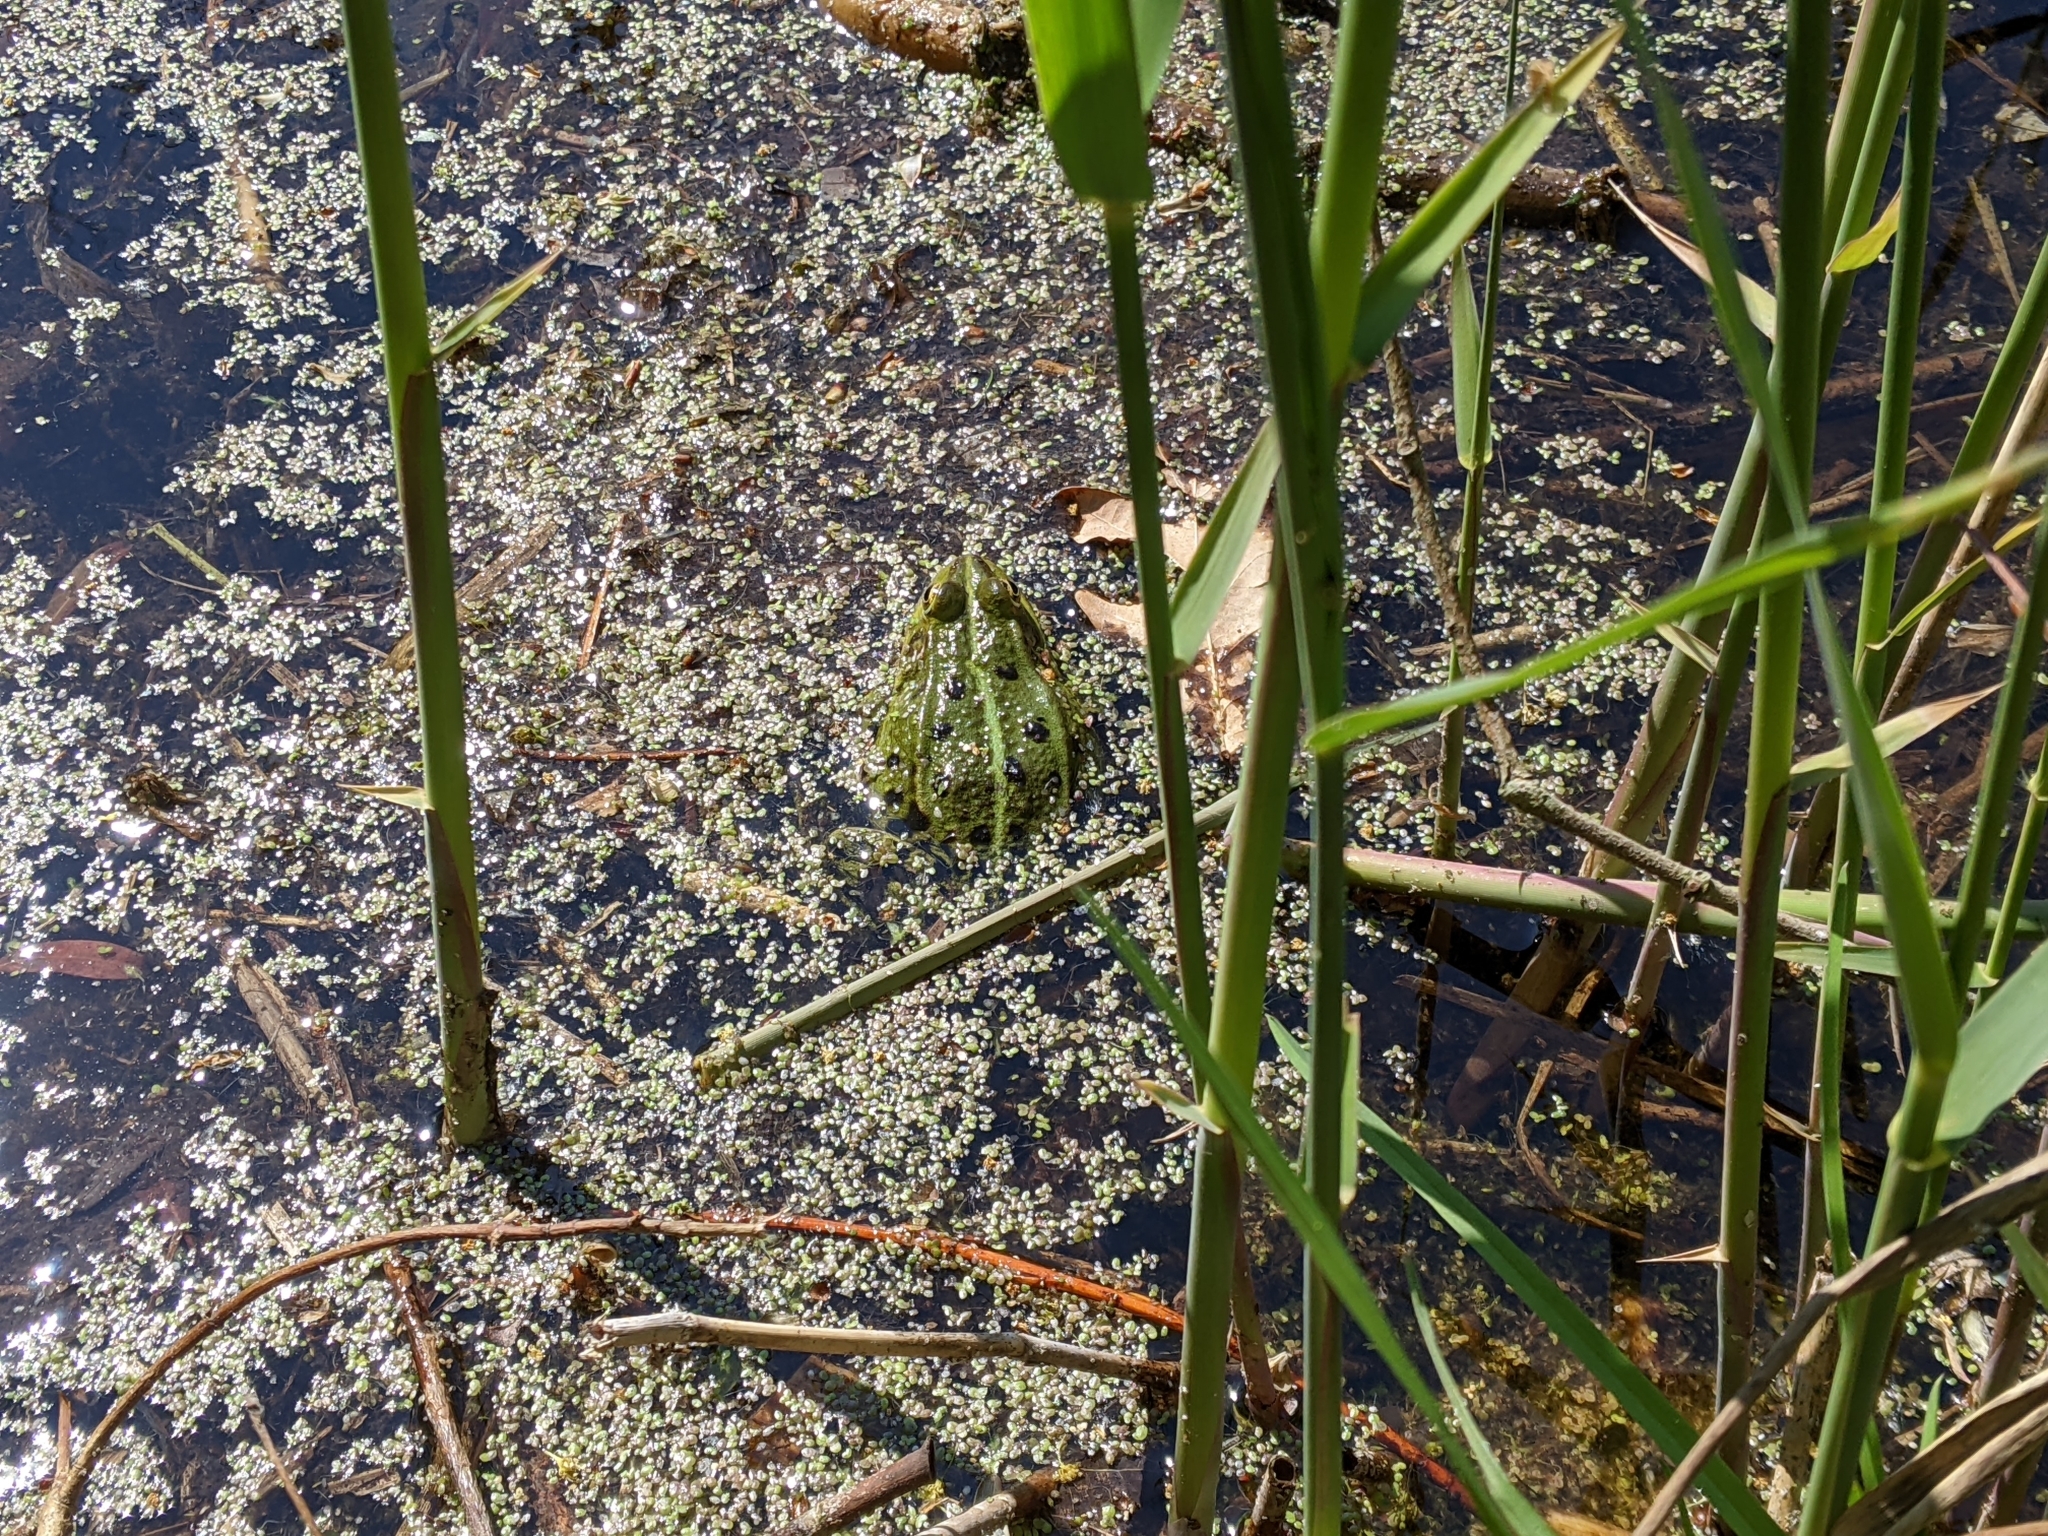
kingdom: Animalia
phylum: Chordata
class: Amphibia
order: Anura
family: Ranidae
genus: Pelophylax
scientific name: Pelophylax
